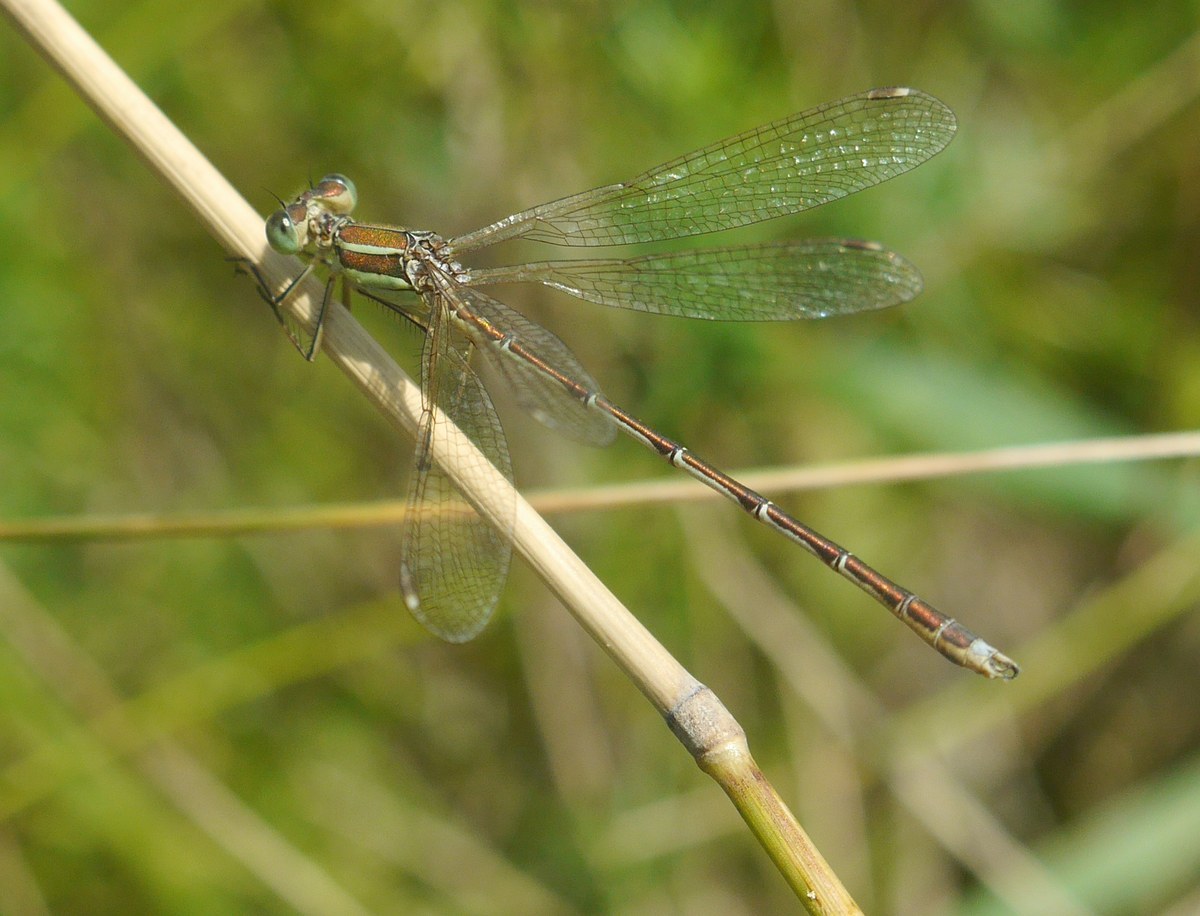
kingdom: Animalia
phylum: Arthropoda
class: Insecta
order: Odonata
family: Lestidae
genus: Lestes
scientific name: Lestes barbarus
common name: Migrant spreadwing
